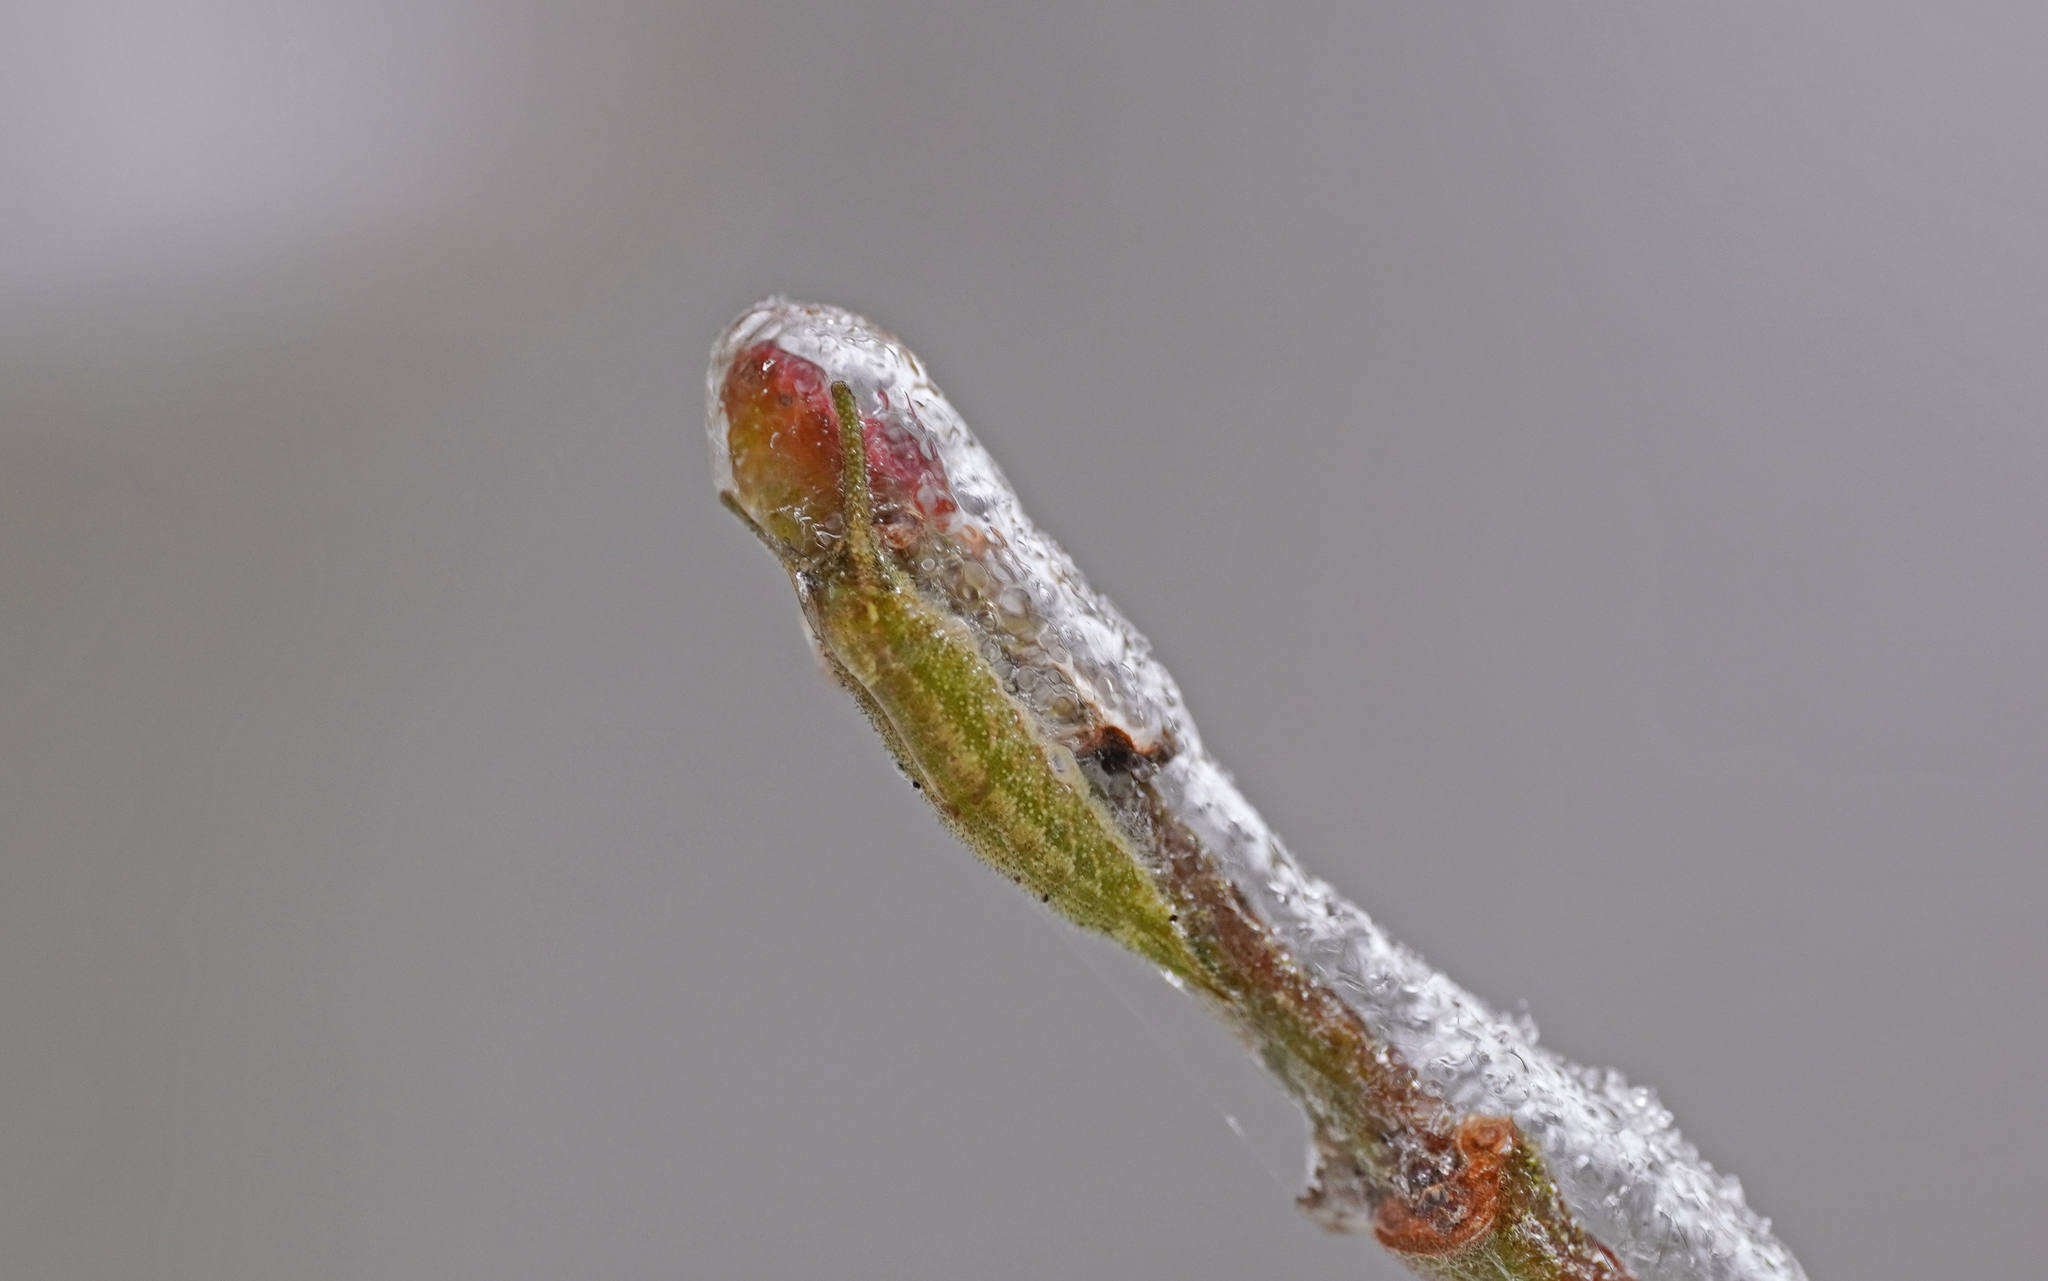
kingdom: Animalia
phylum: Arthropoda
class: Insecta
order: Lepidoptera
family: Nymphalidae
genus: Apatura
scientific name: Apatura iris
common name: Purple emperor
